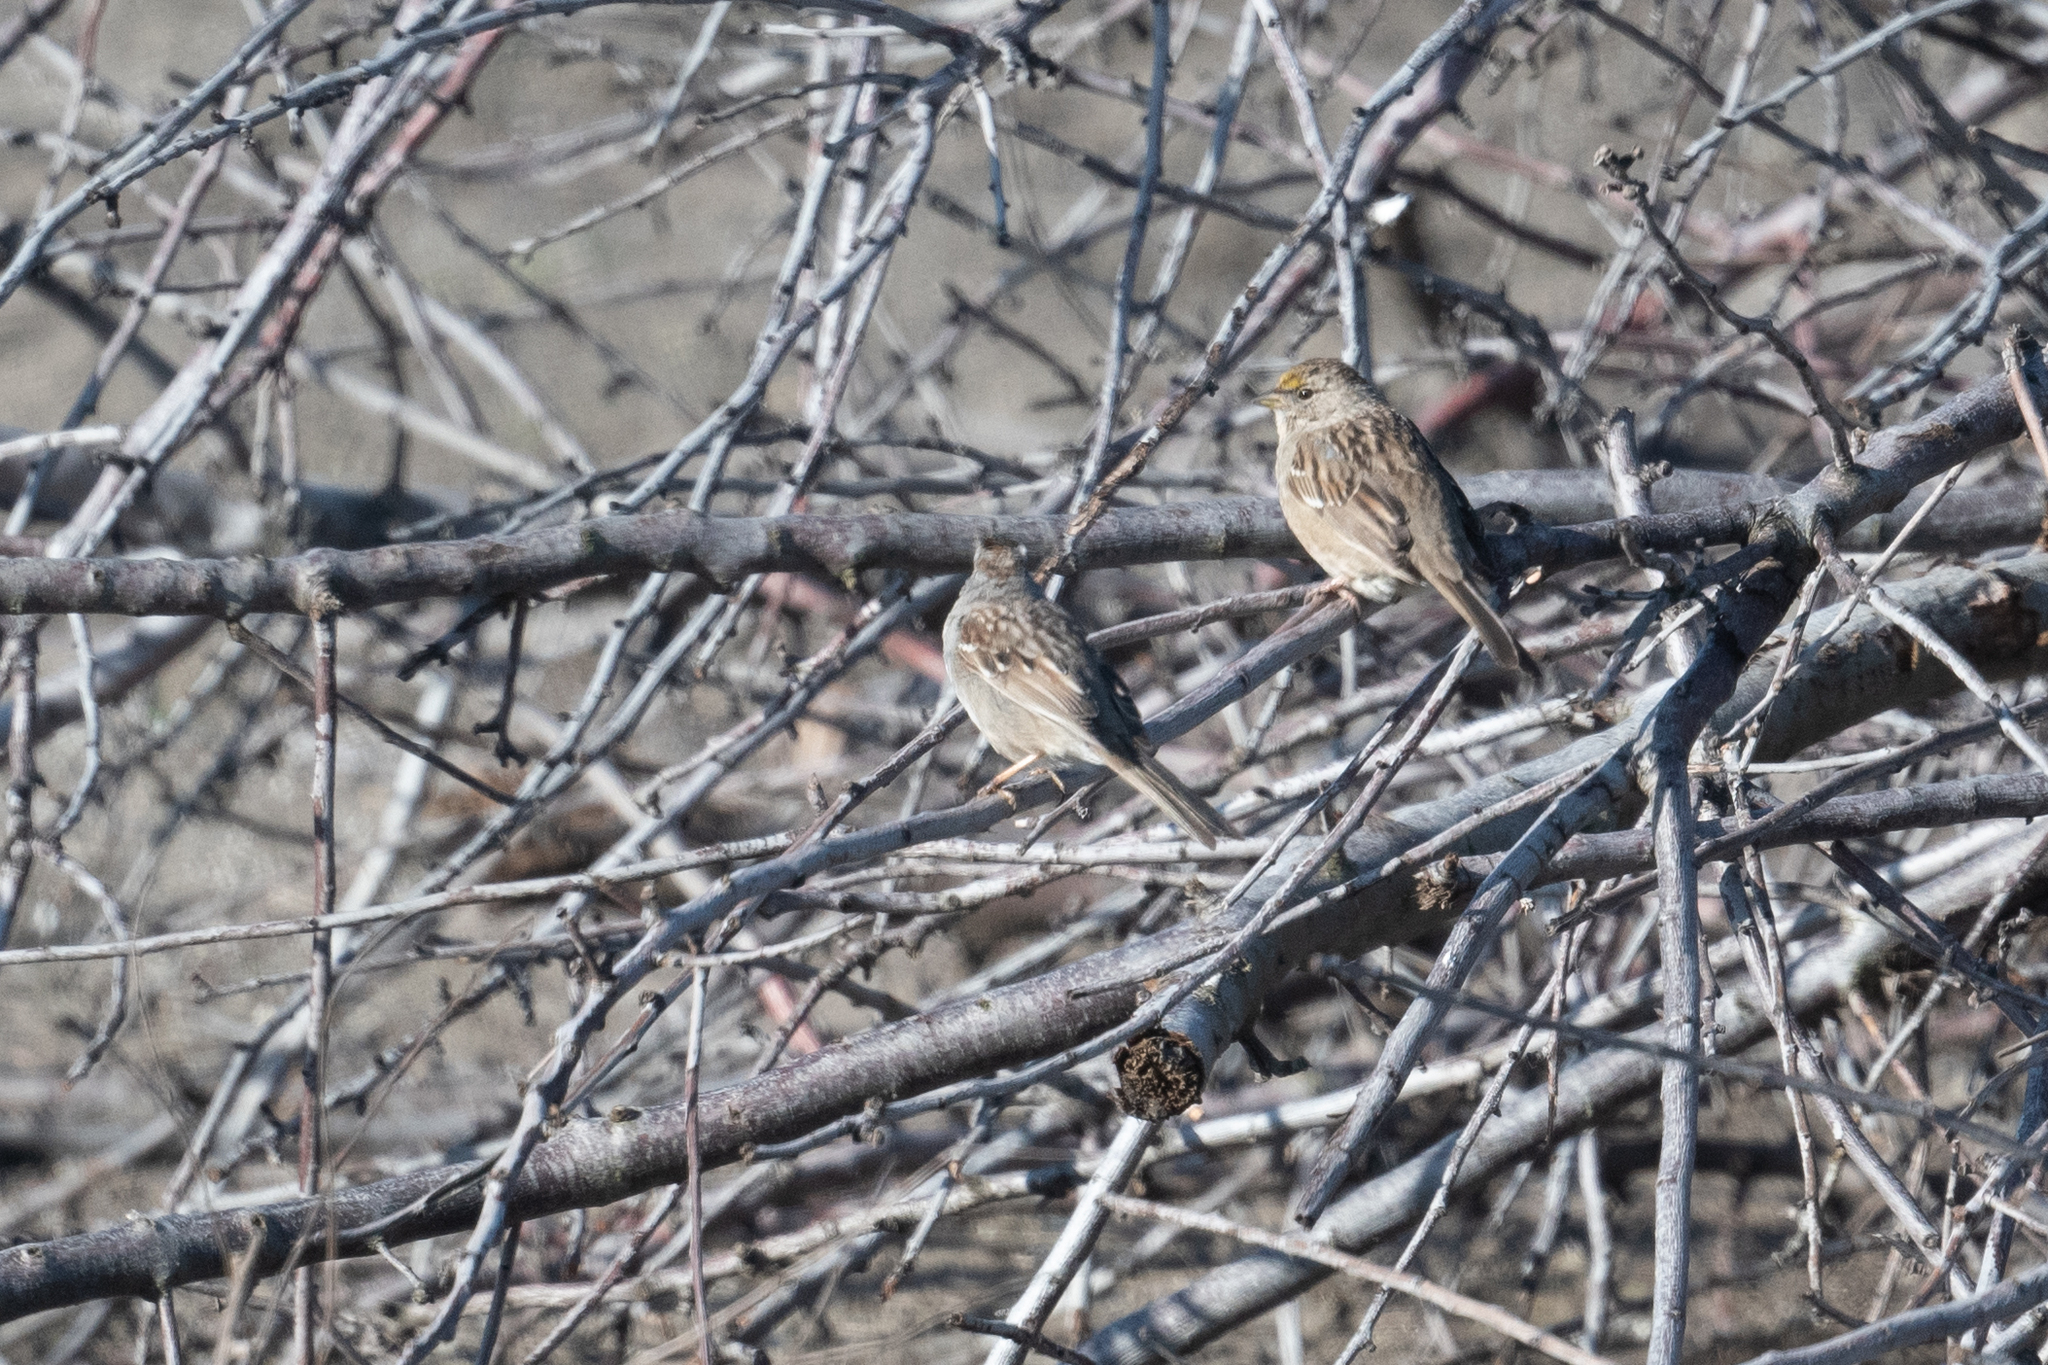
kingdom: Animalia
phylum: Chordata
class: Aves
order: Passeriformes
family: Passerellidae
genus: Zonotrichia
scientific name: Zonotrichia atricapilla
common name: Golden-crowned sparrow
